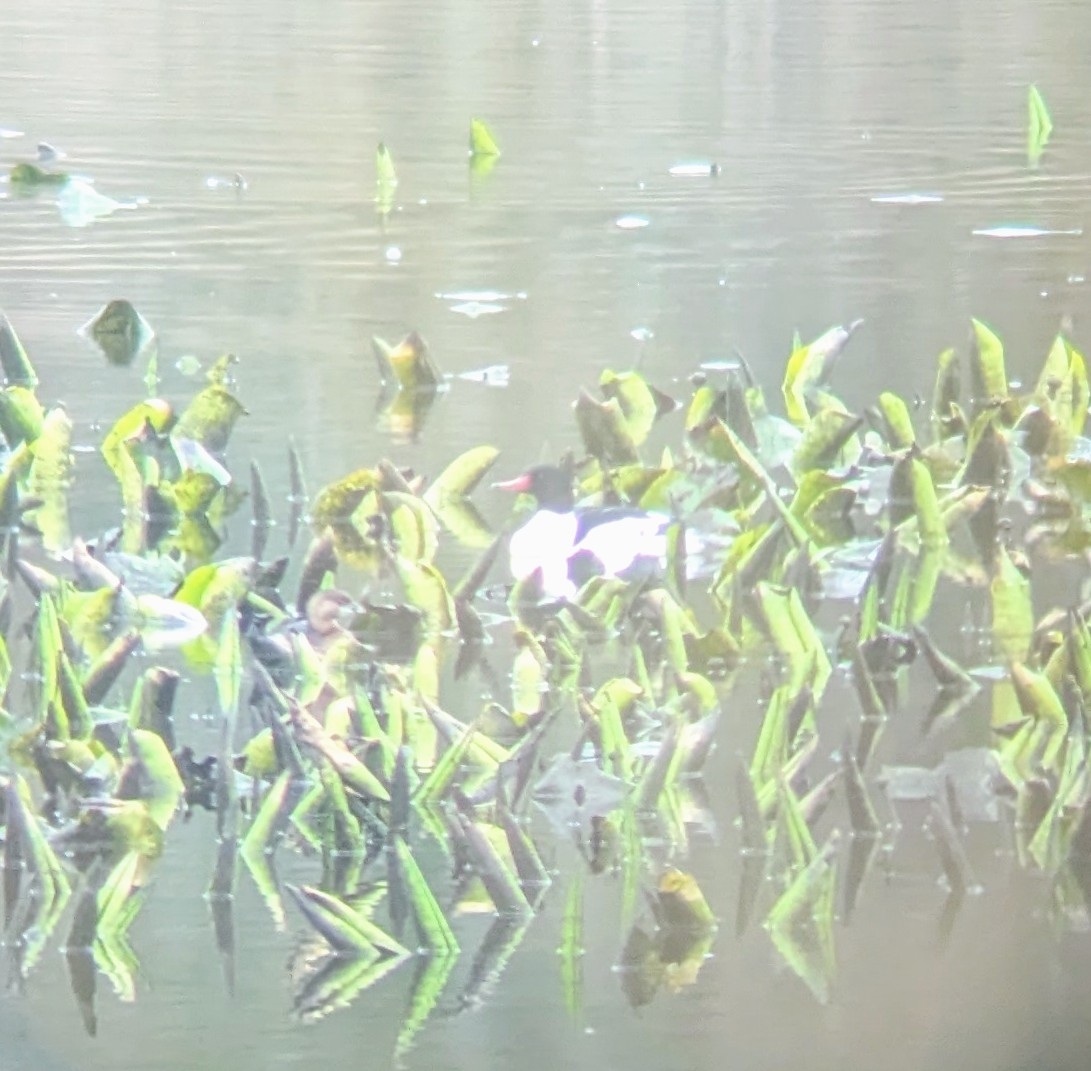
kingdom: Animalia
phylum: Chordata
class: Aves
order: Podicipediformes
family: Podicipedidae
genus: Podilymbus
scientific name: Podilymbus podiceps
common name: Pied-billed grebe
